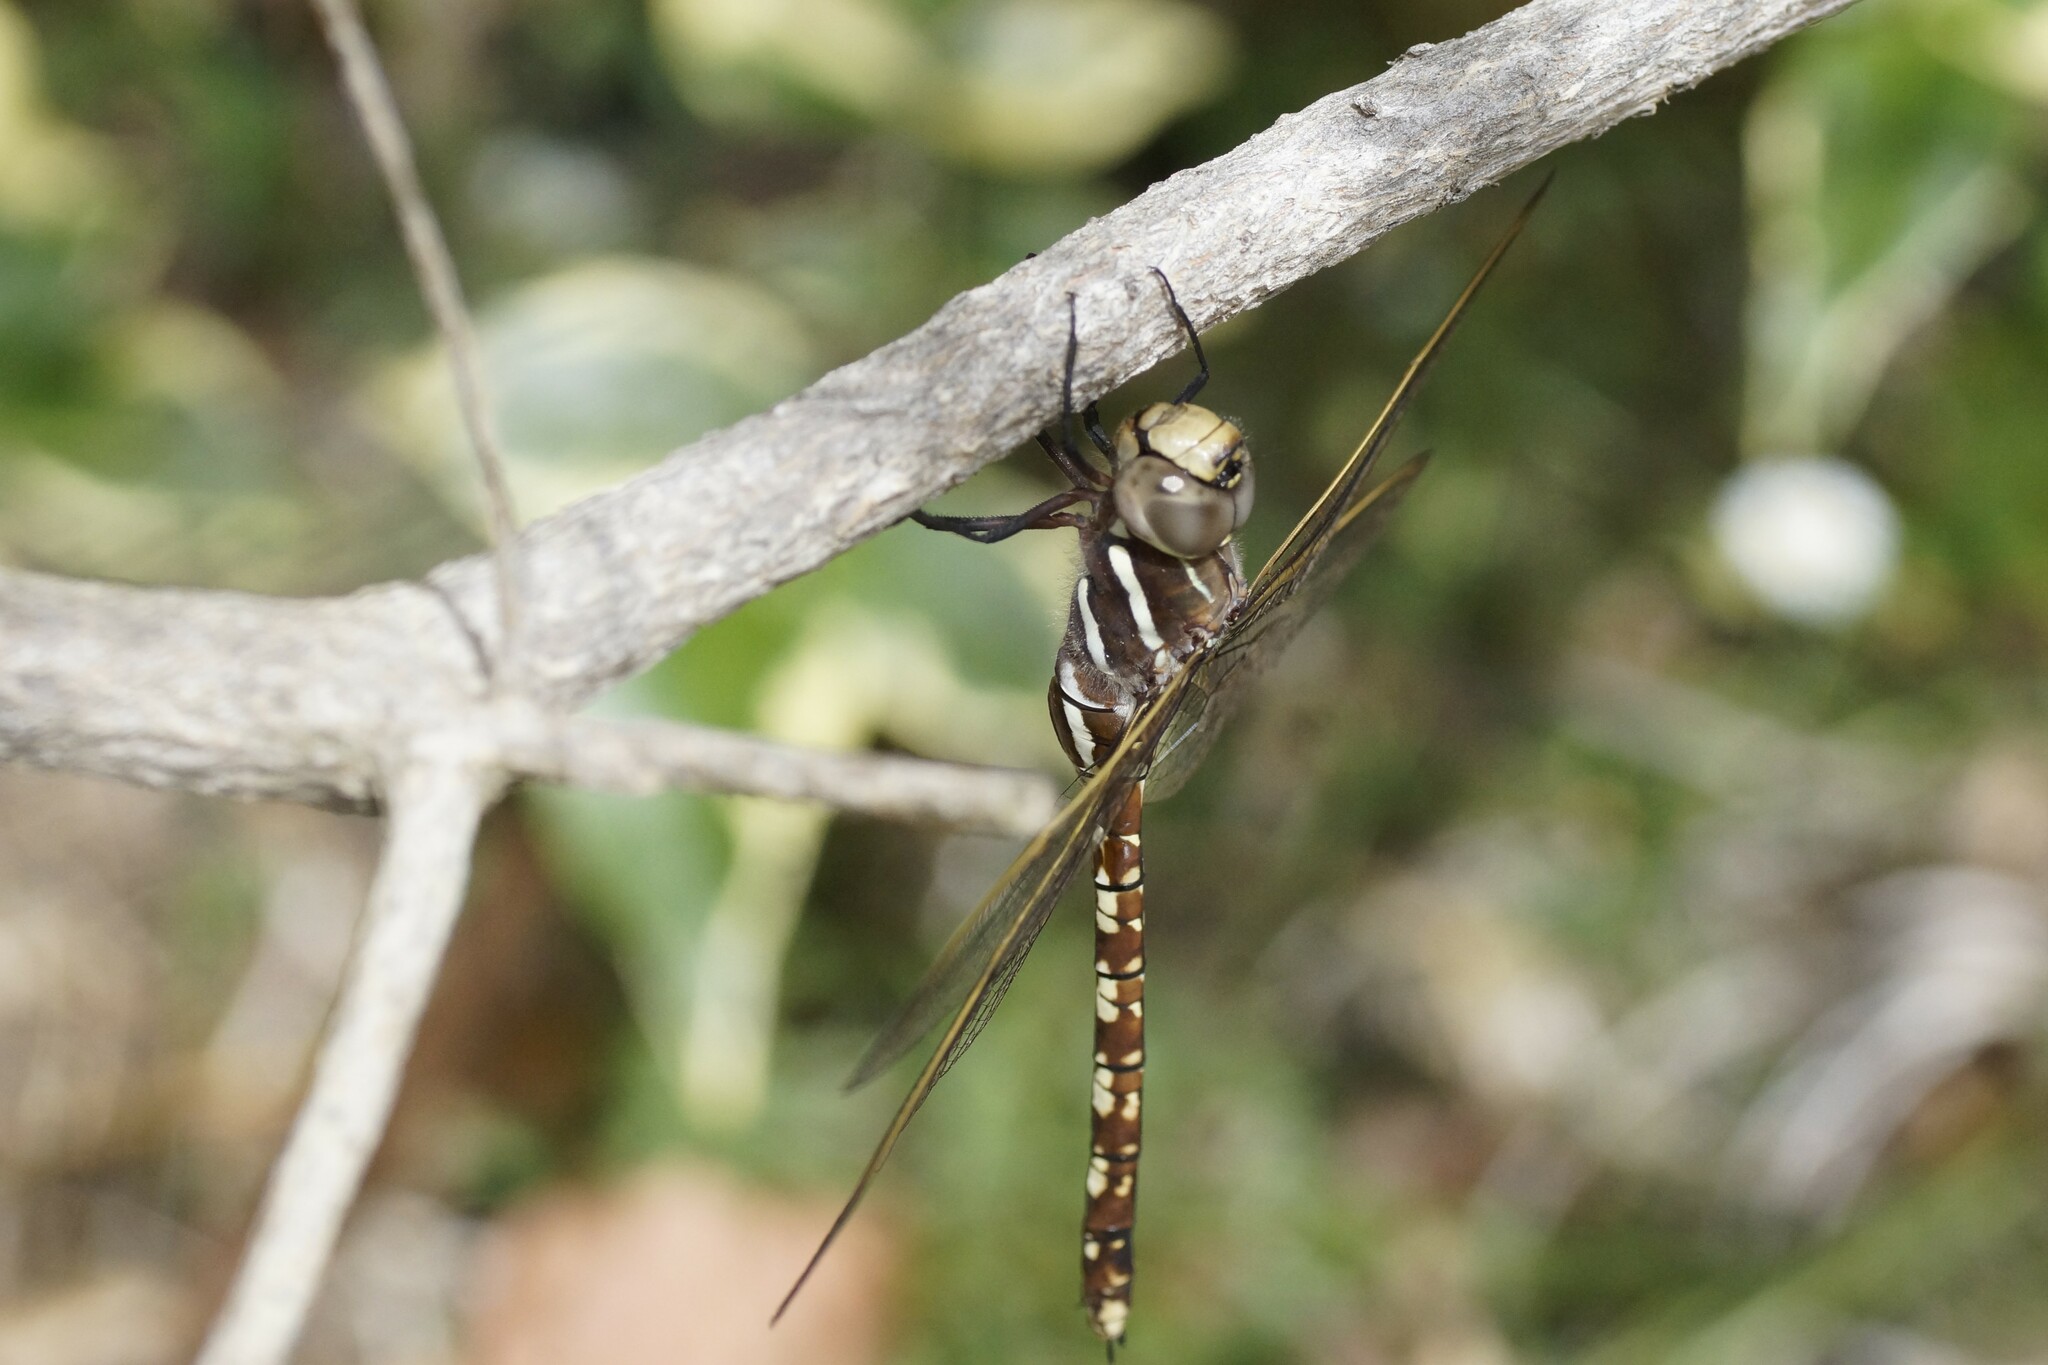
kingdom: Animalia
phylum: Arthropoda
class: Insecta
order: Odonata
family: Aeshnidae
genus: Aeshna
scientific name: Aeshna brevistyla
